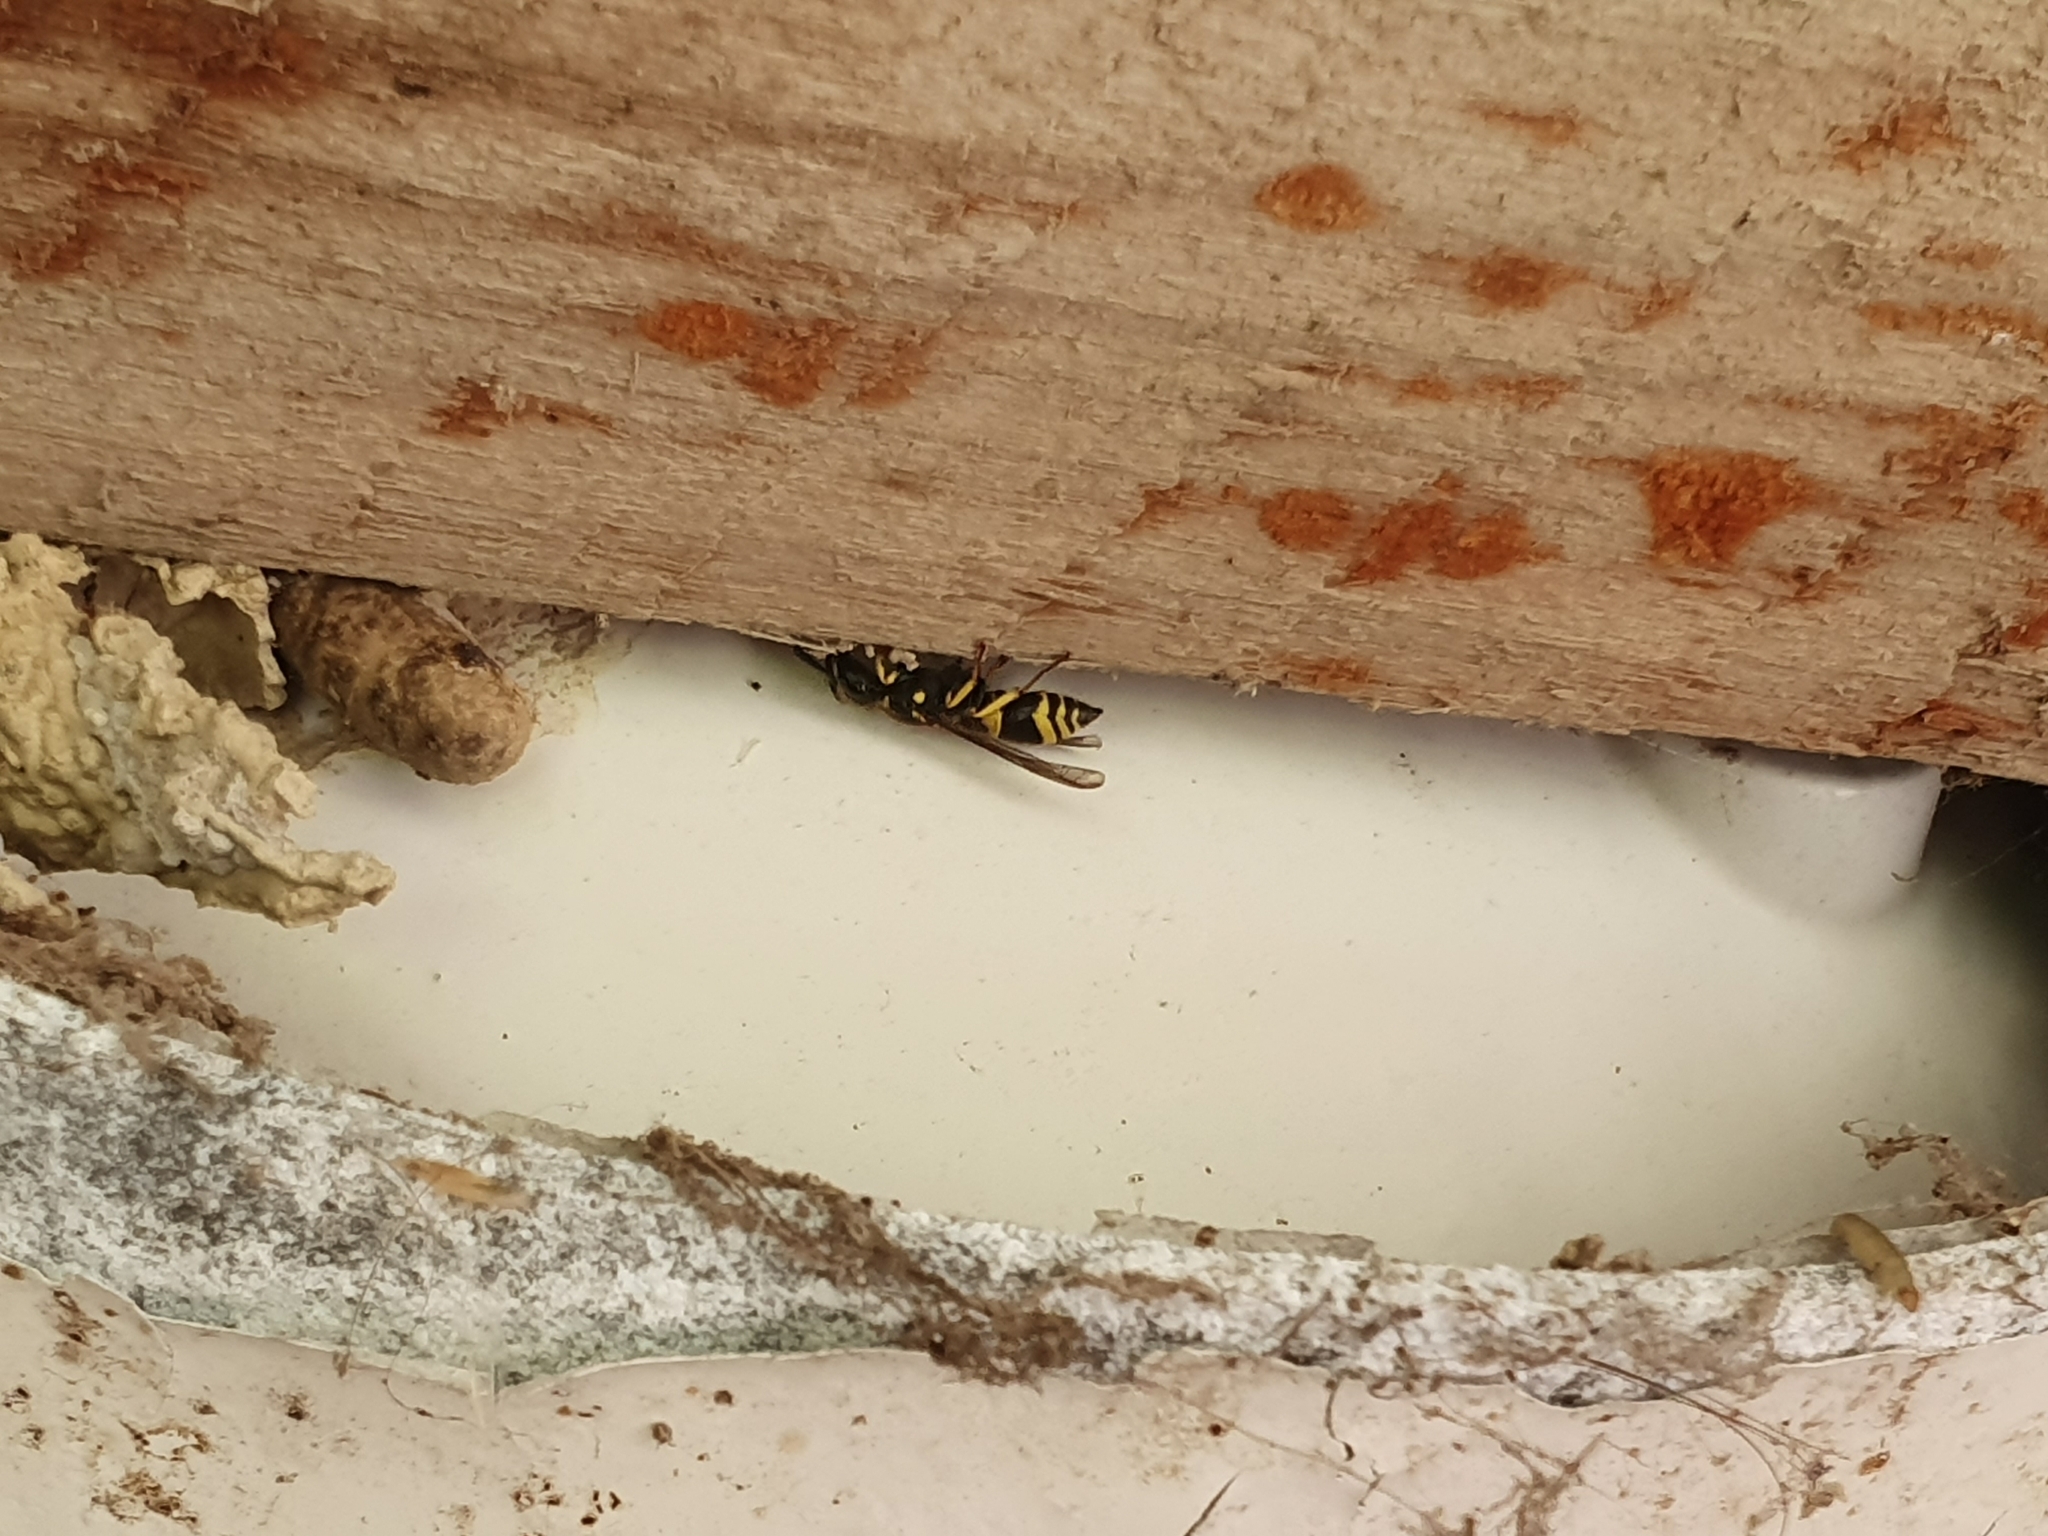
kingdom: Animalia
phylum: Arthropoda
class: Insecta
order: Hymenoptera
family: Vespidae
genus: Ancistrocerus
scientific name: Ancistrocerus gazella
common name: European tube wasp
